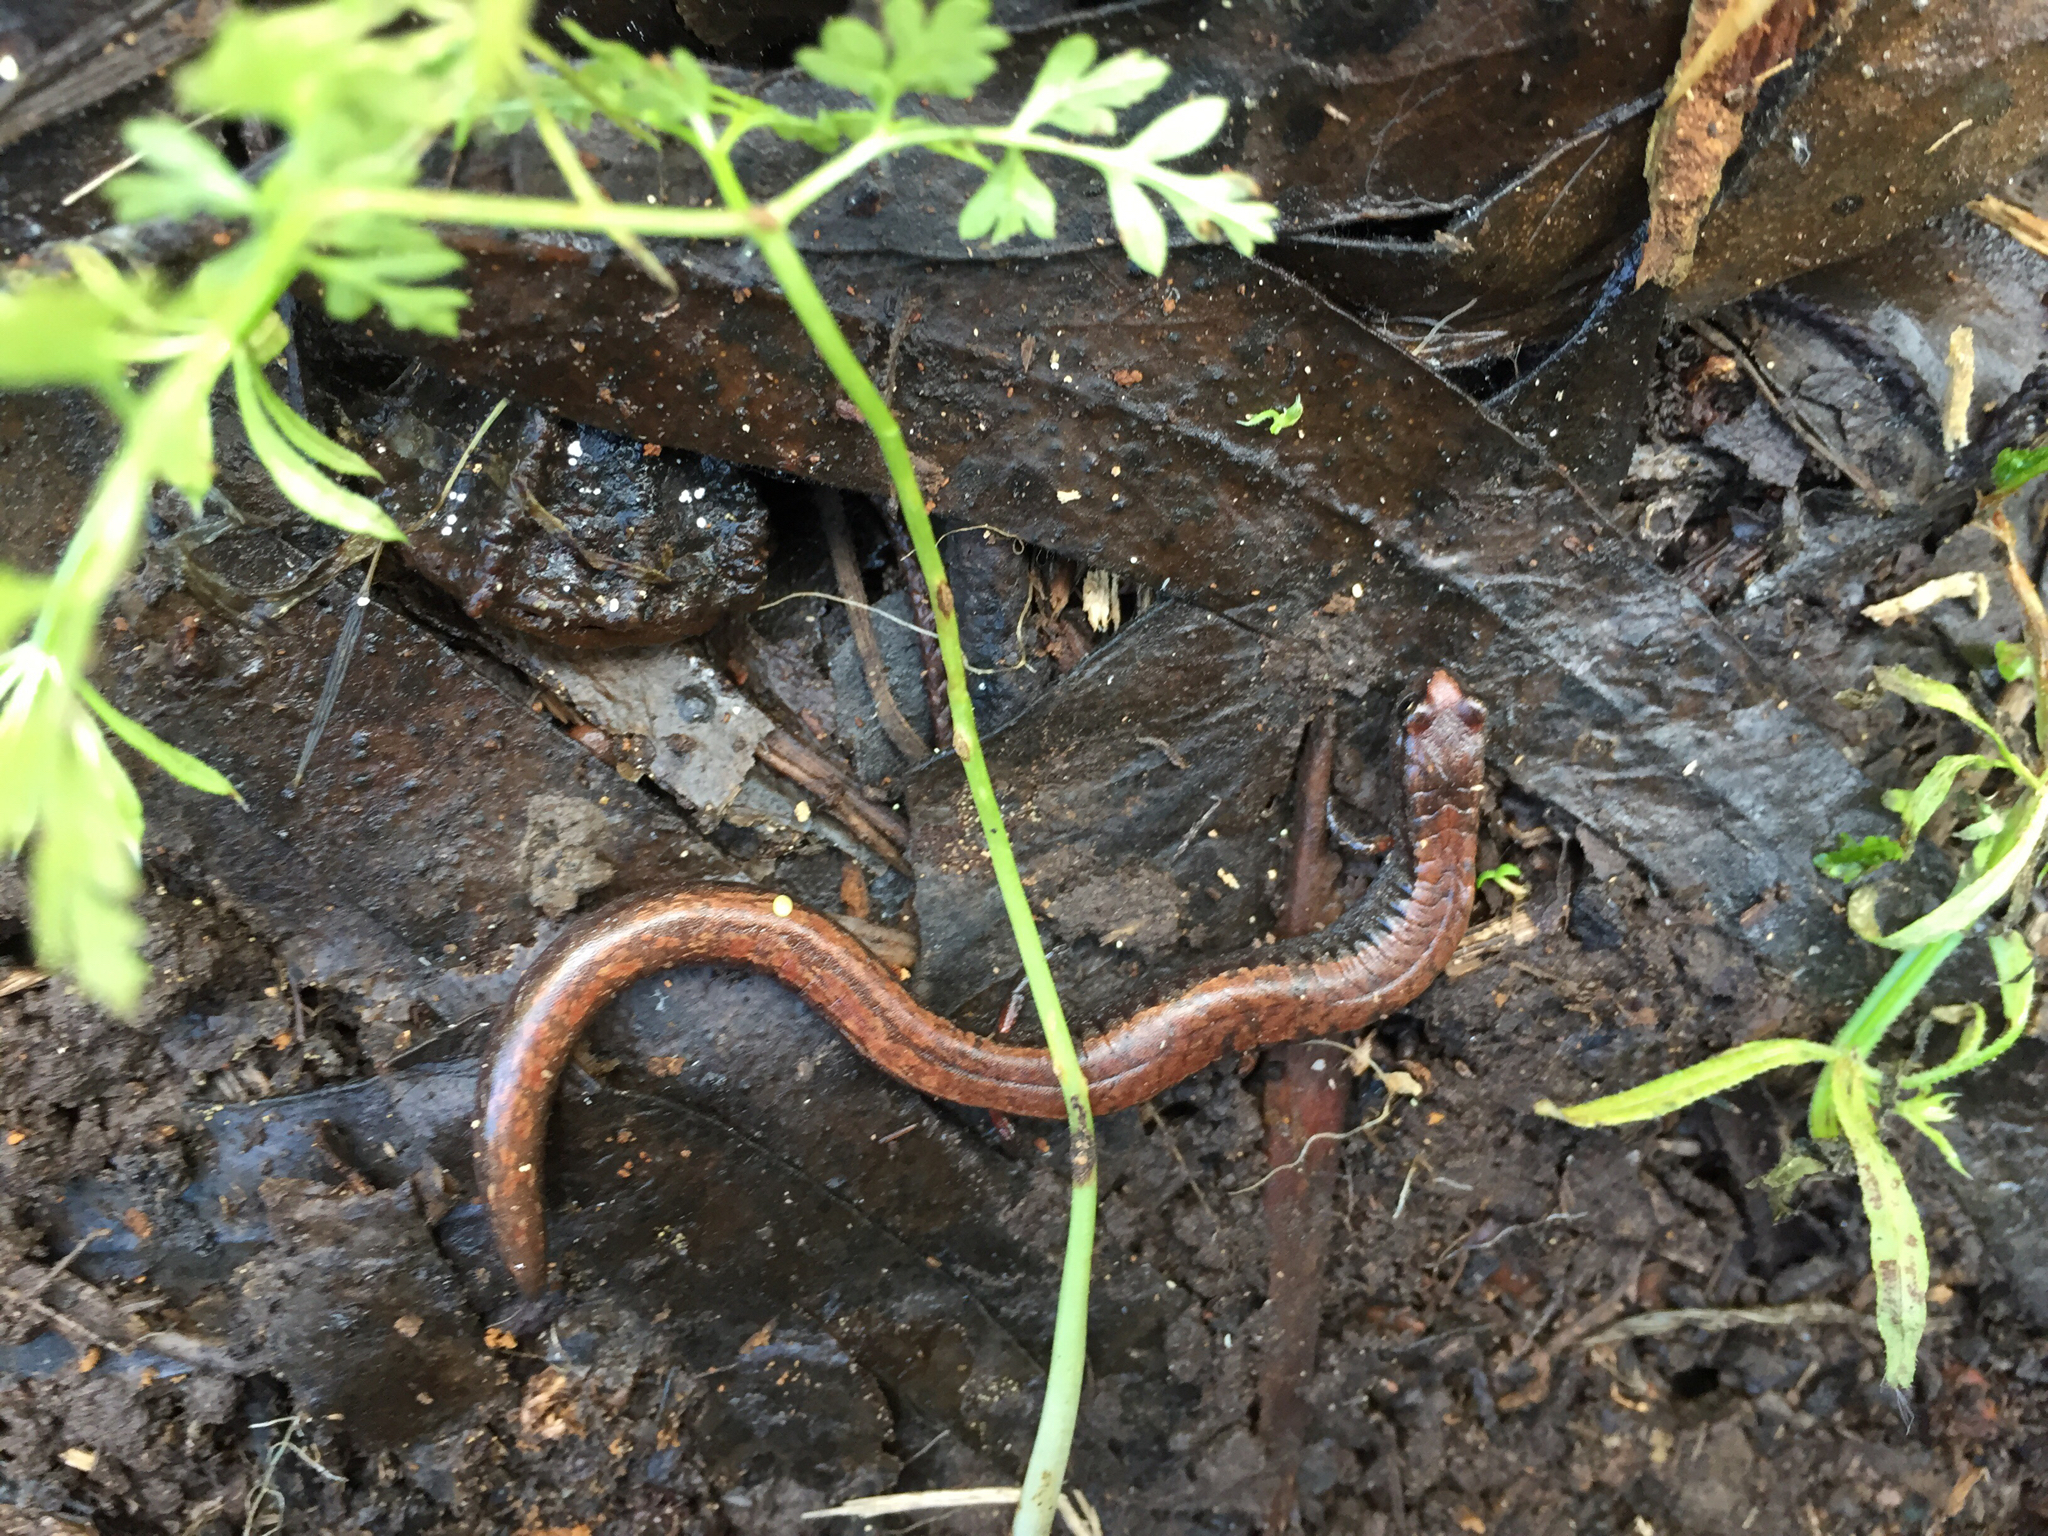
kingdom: Animalia
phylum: Chordata
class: Amphibia
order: Caudata
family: Plethodontidae
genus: Batrachoseps
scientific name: Batrachoseps attenuatus
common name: California slender salamander
